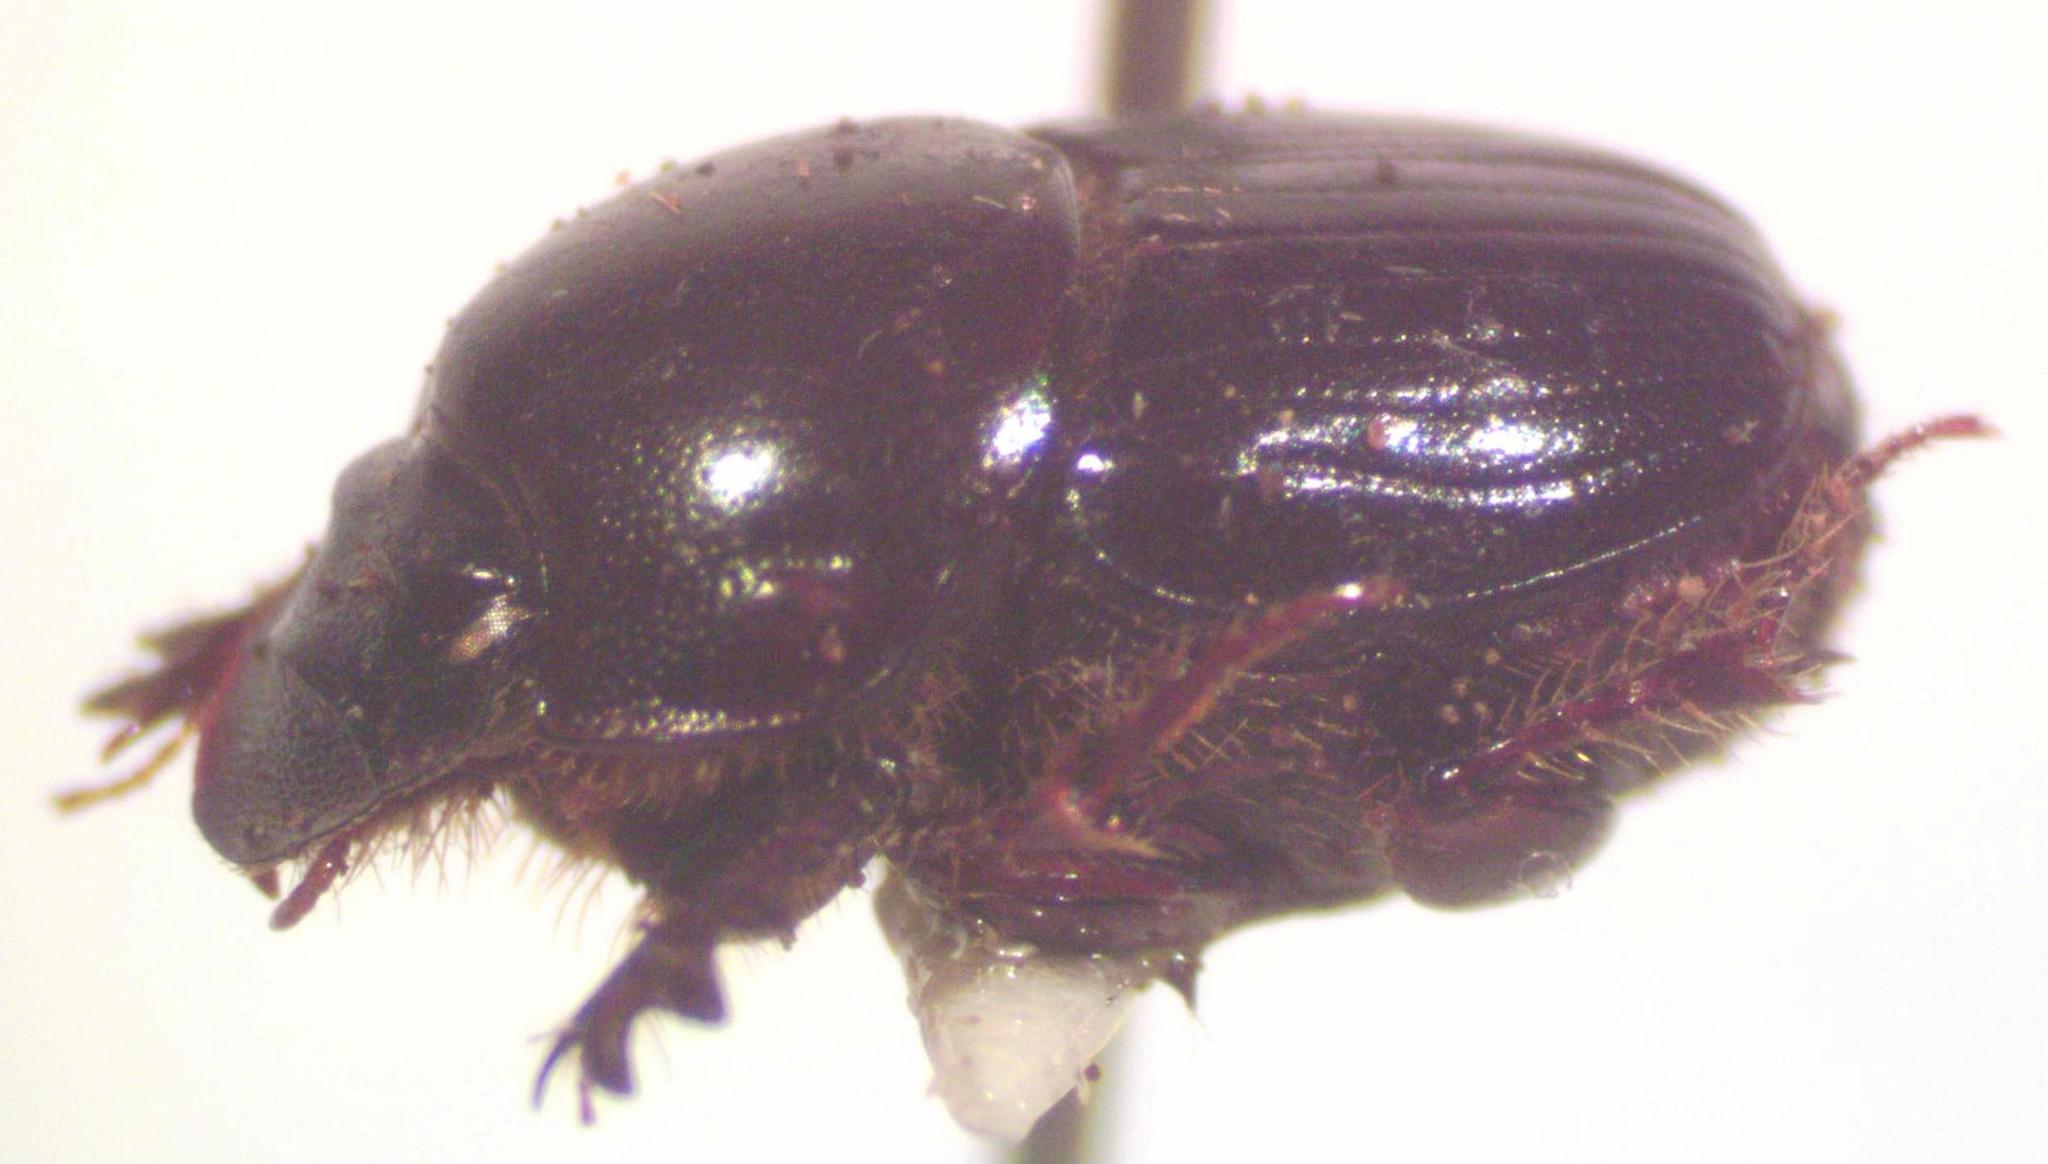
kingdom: Animalia
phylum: Arthropoda
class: Insecta
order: Coleoptera
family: Scarabaeidae
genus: Onthophagus
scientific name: Onthophagus acuminatus
